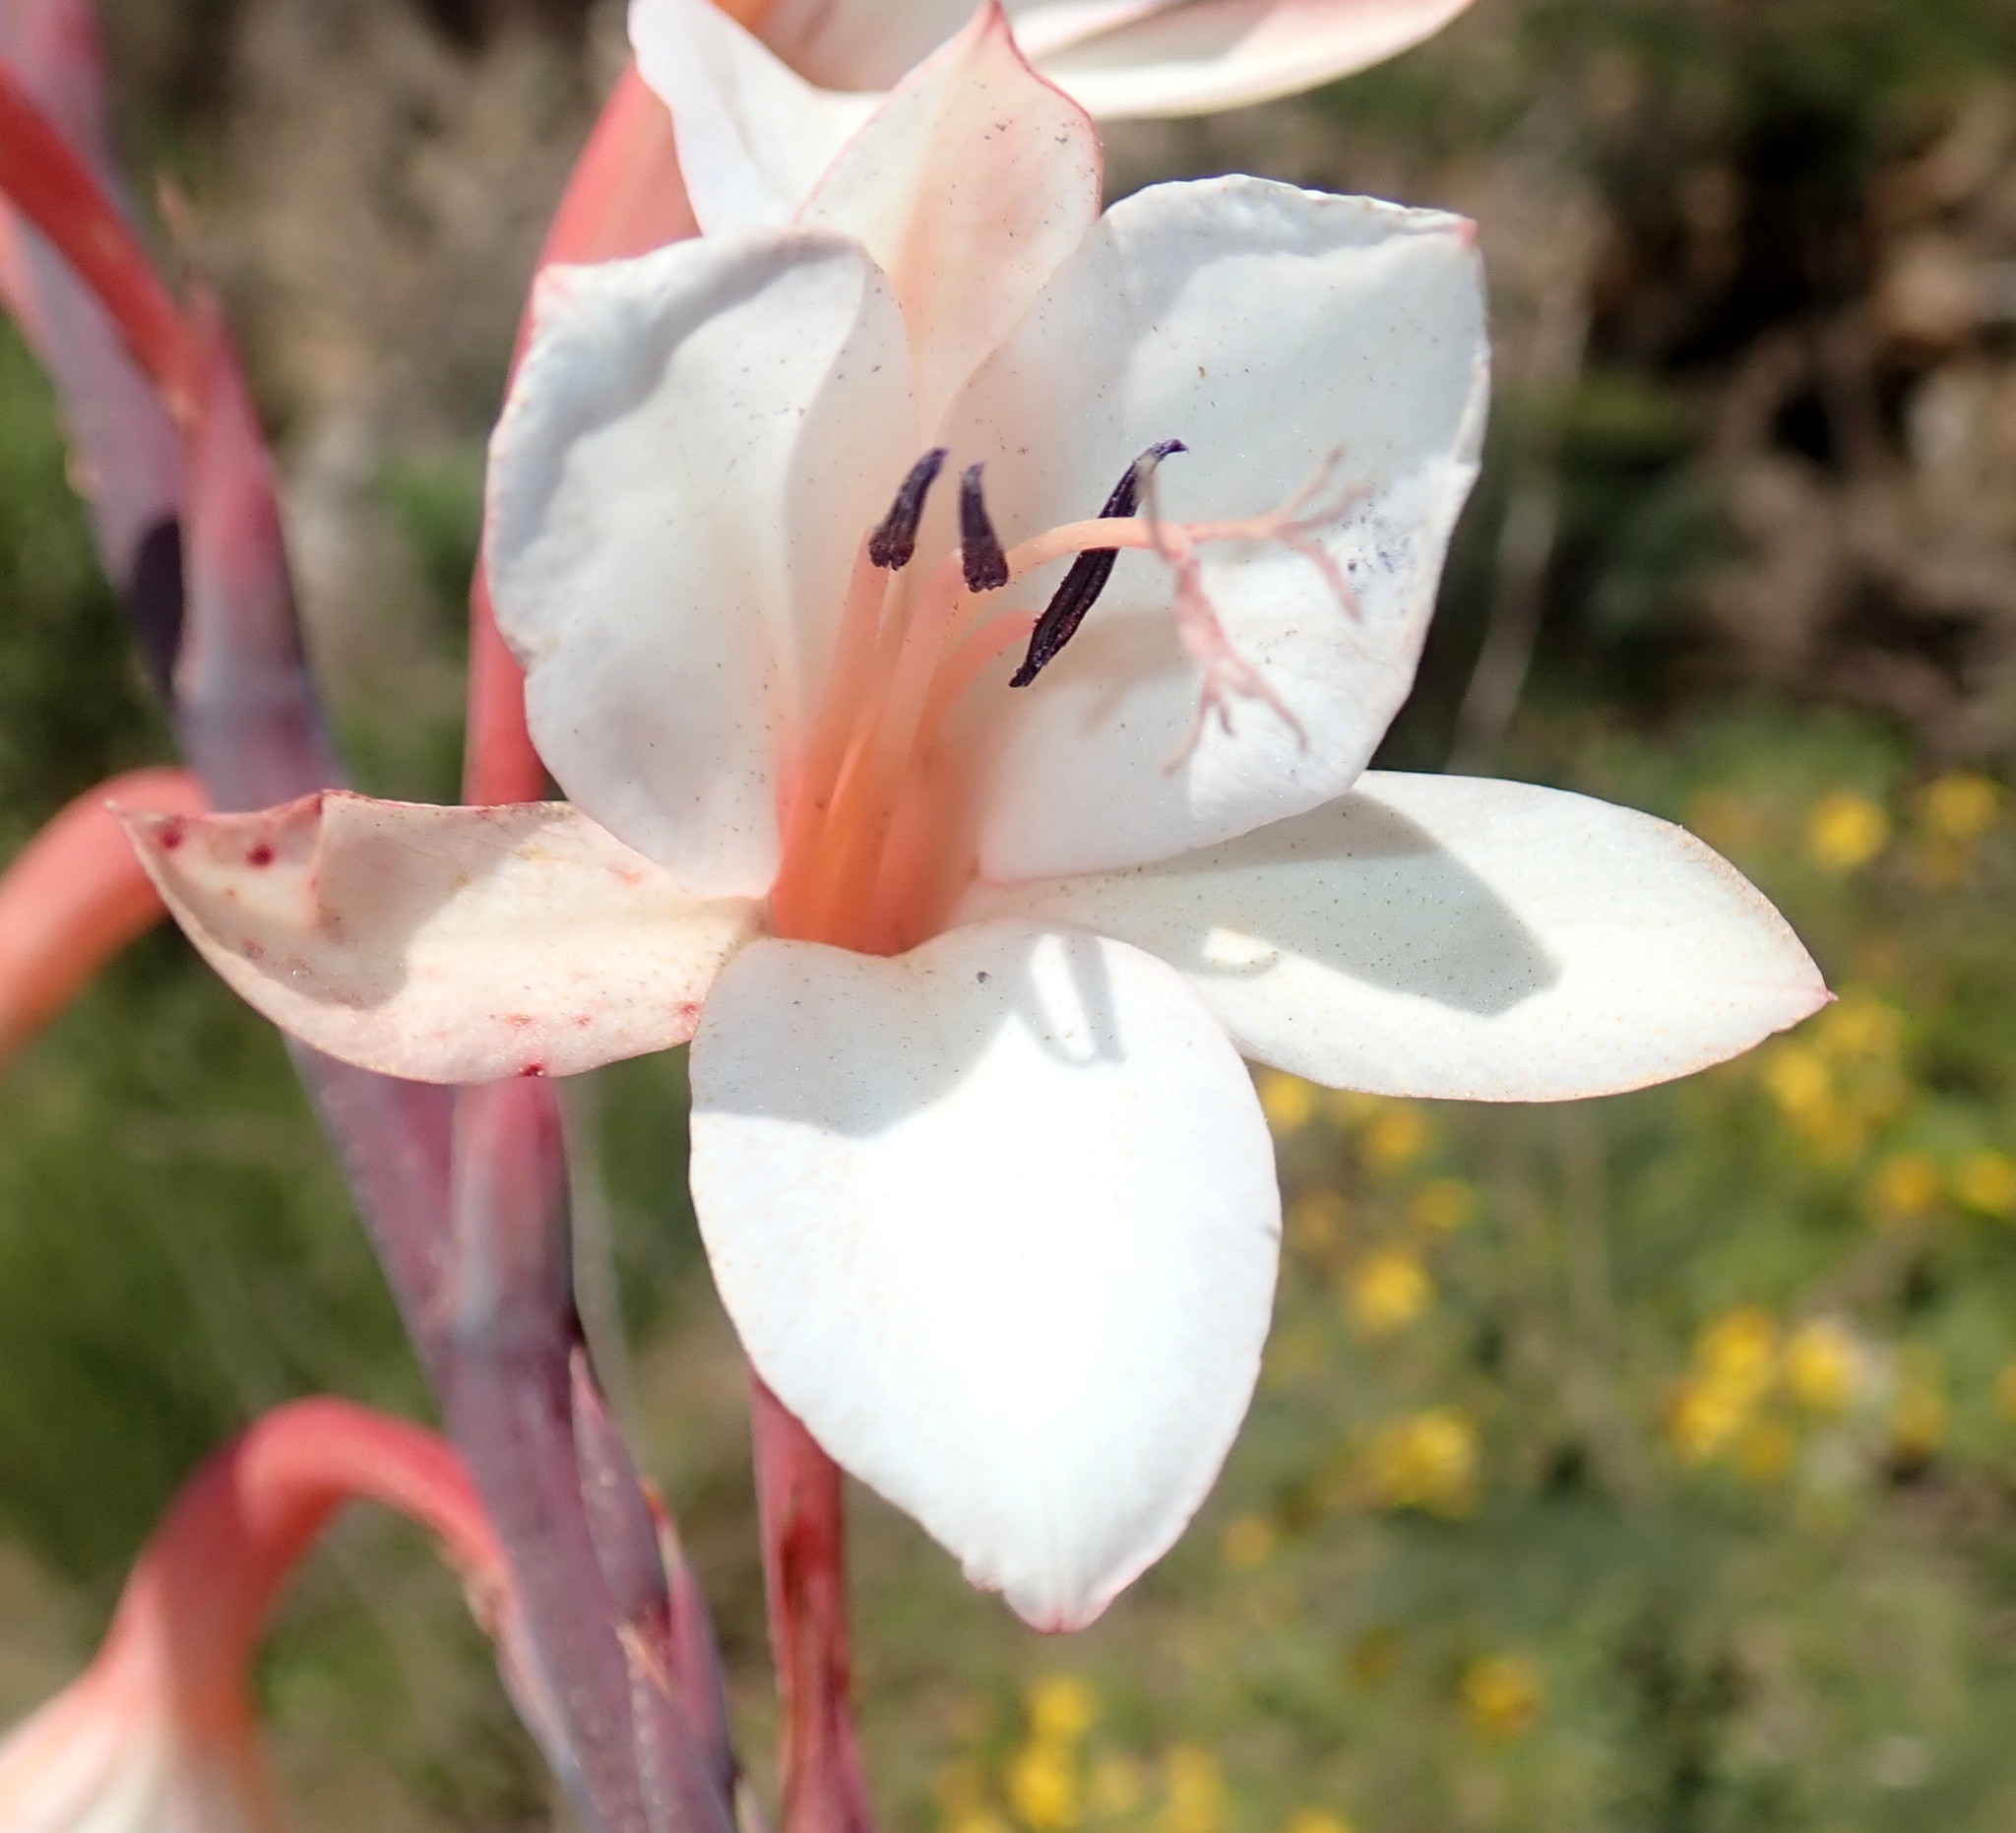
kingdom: Plantae
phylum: Tracheophyta
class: Liliopsida
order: Asparagales
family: Iridaceae
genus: Watsonia
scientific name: Watsonia fourcadei
